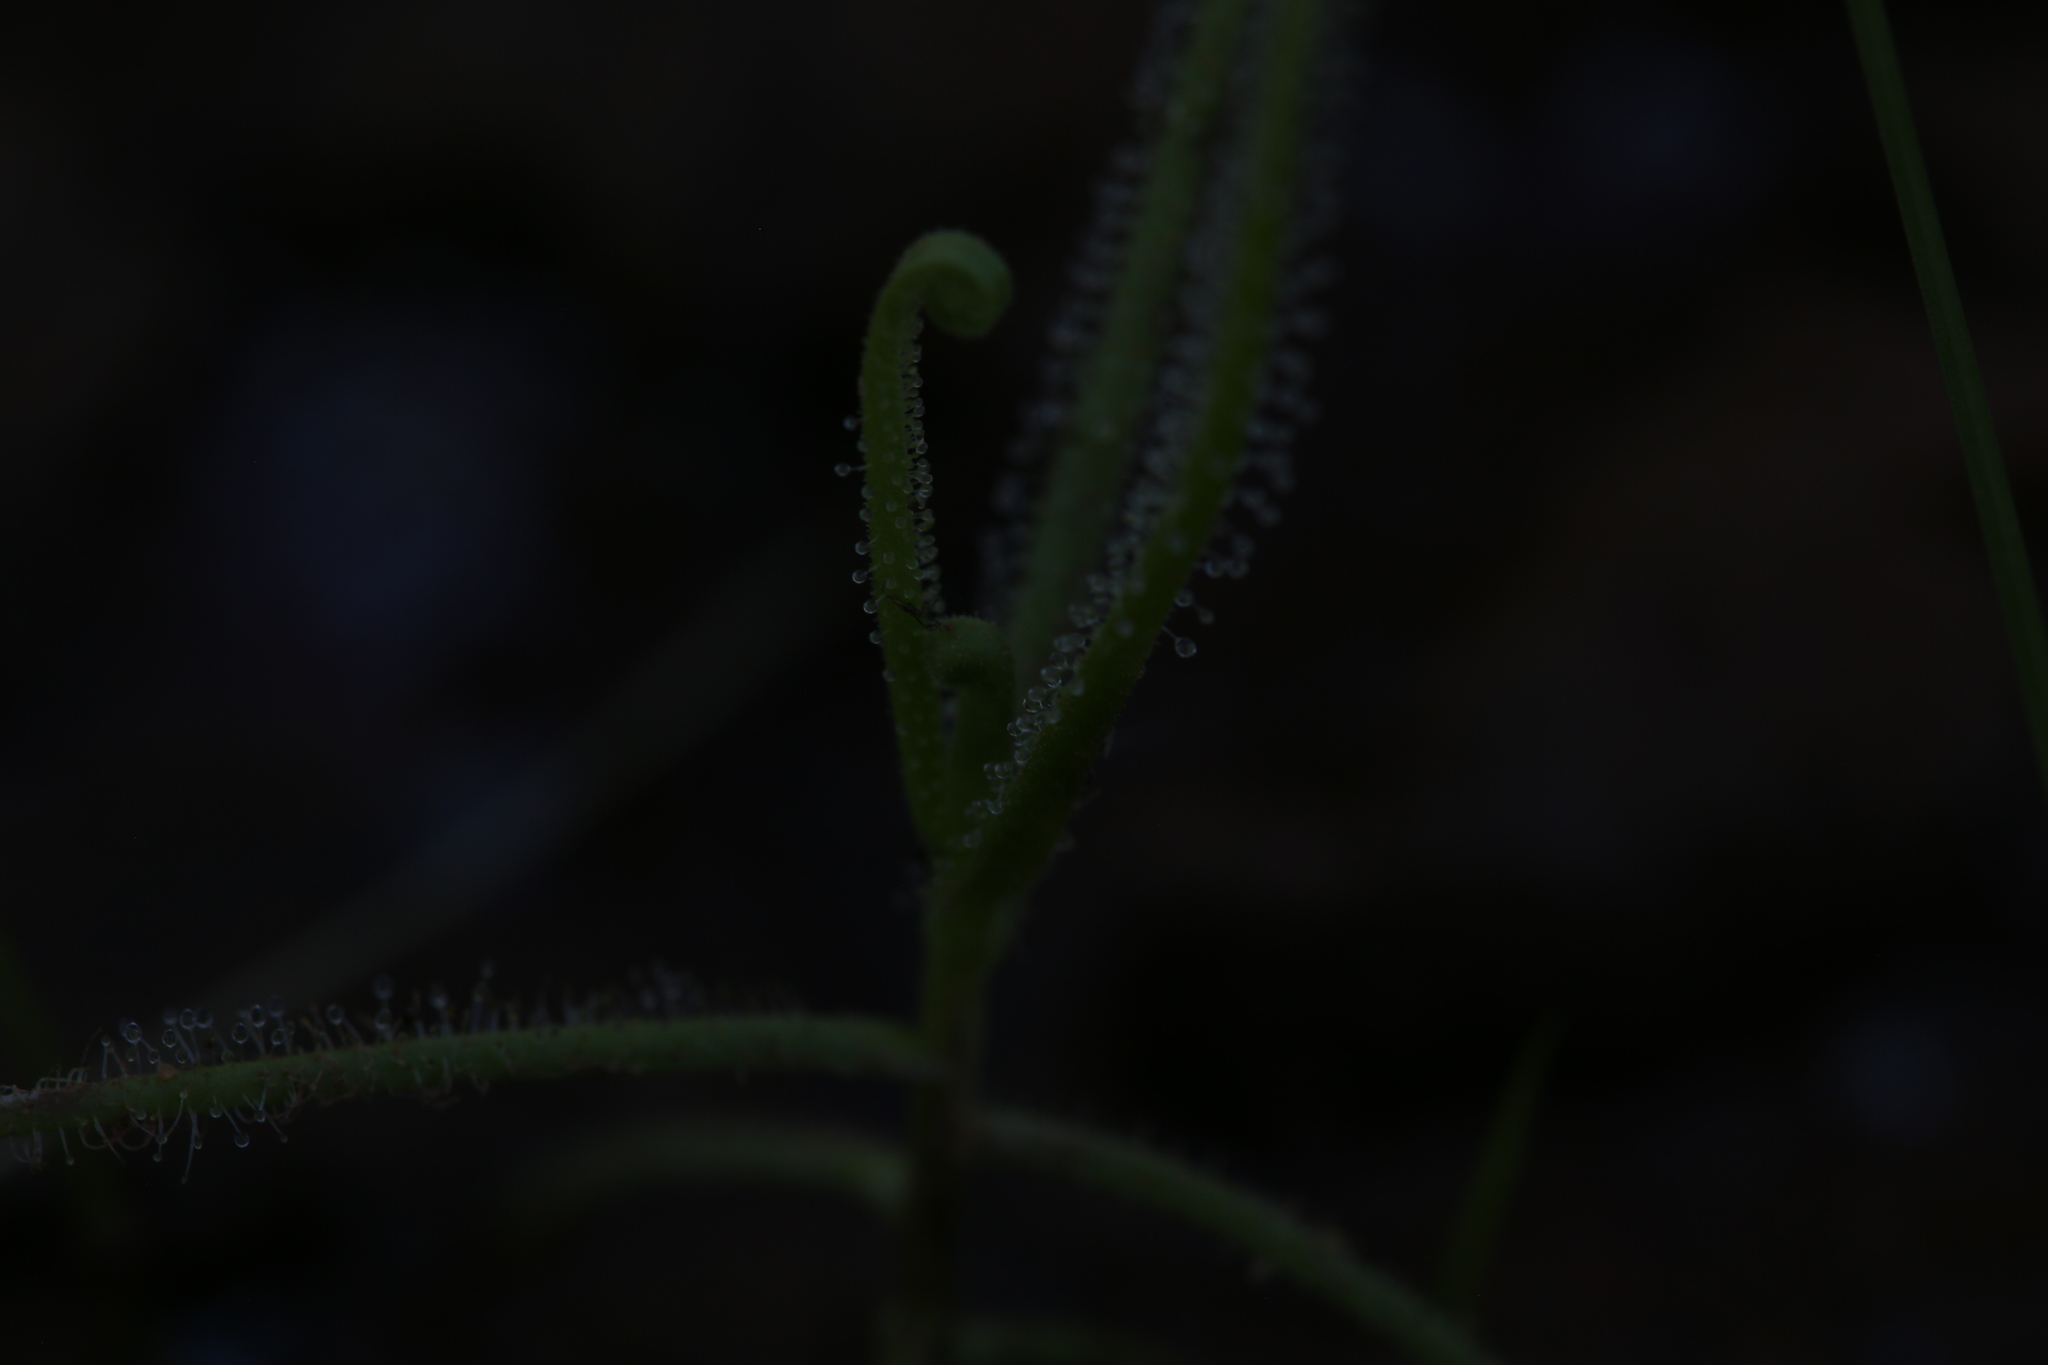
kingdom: Plantae
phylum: Tracheophyta
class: Magnoliopsida
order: Caryophyllales
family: Droseraceae
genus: Drosera
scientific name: Drosera finlaysoniana
